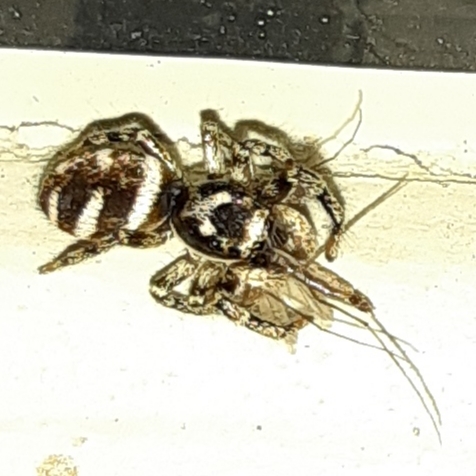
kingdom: Animalia
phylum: Arthropoda
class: Arachnida
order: Araneae
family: Salticidae
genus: Salticus
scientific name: Salticus scenicus
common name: Zebra jumper
